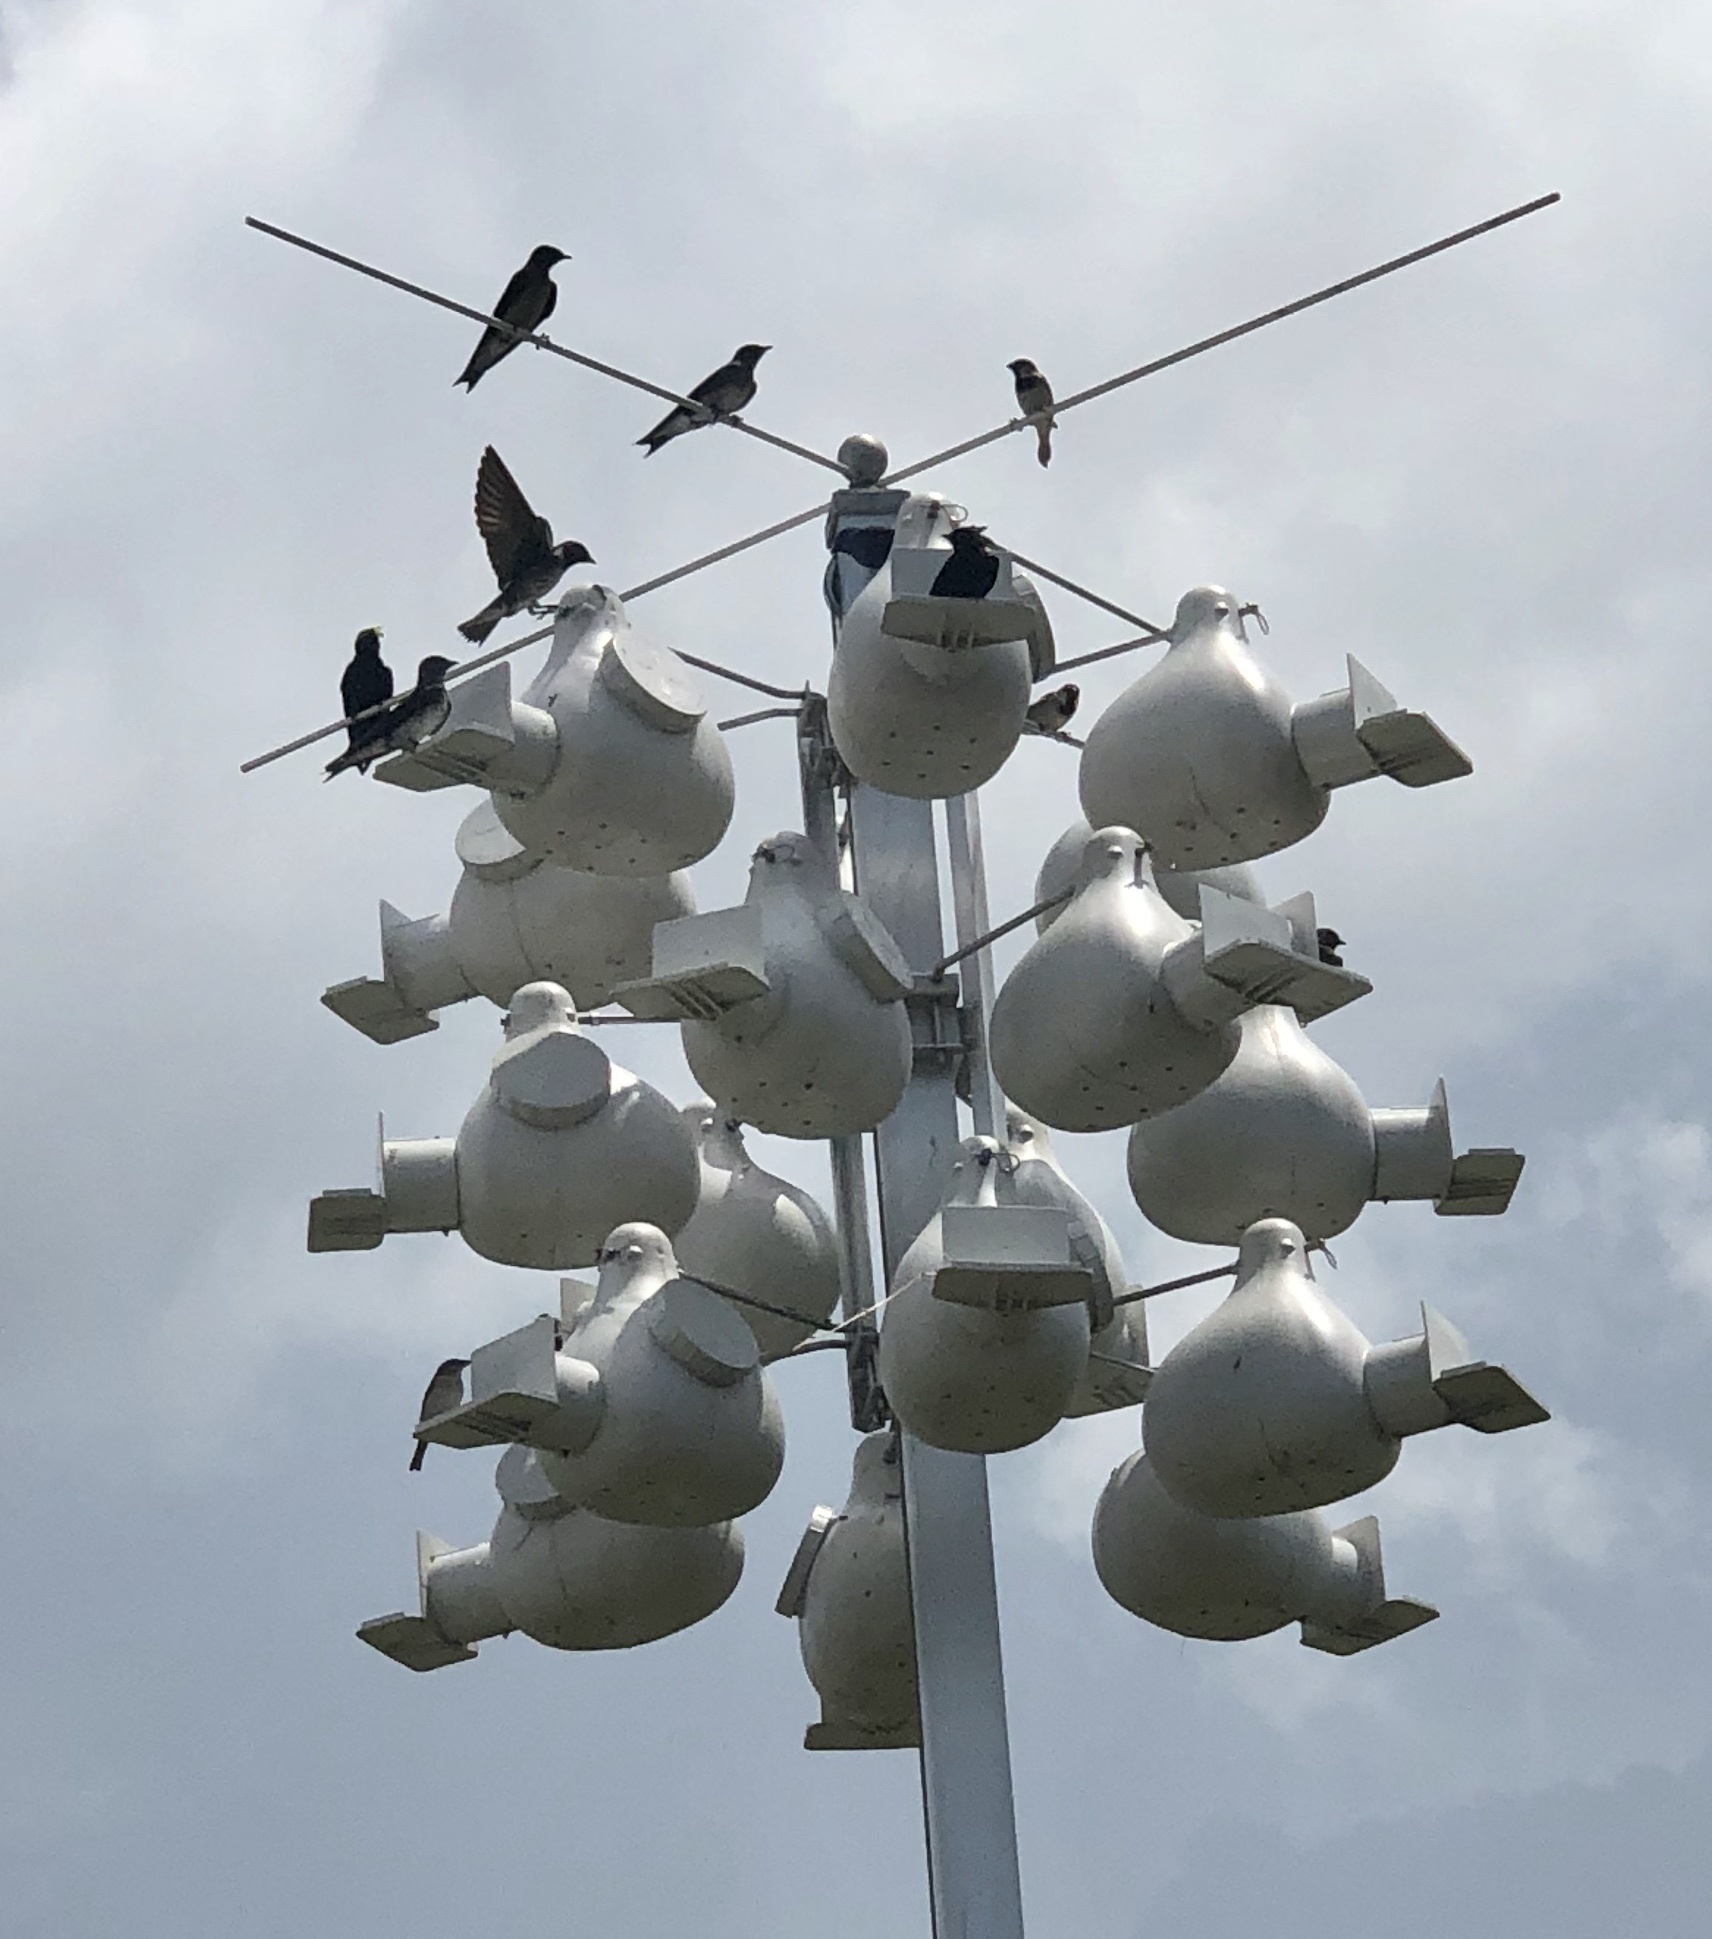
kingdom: Animalia
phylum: Chordata
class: Aves
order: Passeriformes
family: Hirundinidae
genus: Progne
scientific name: Progne subis
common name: Purple martin
